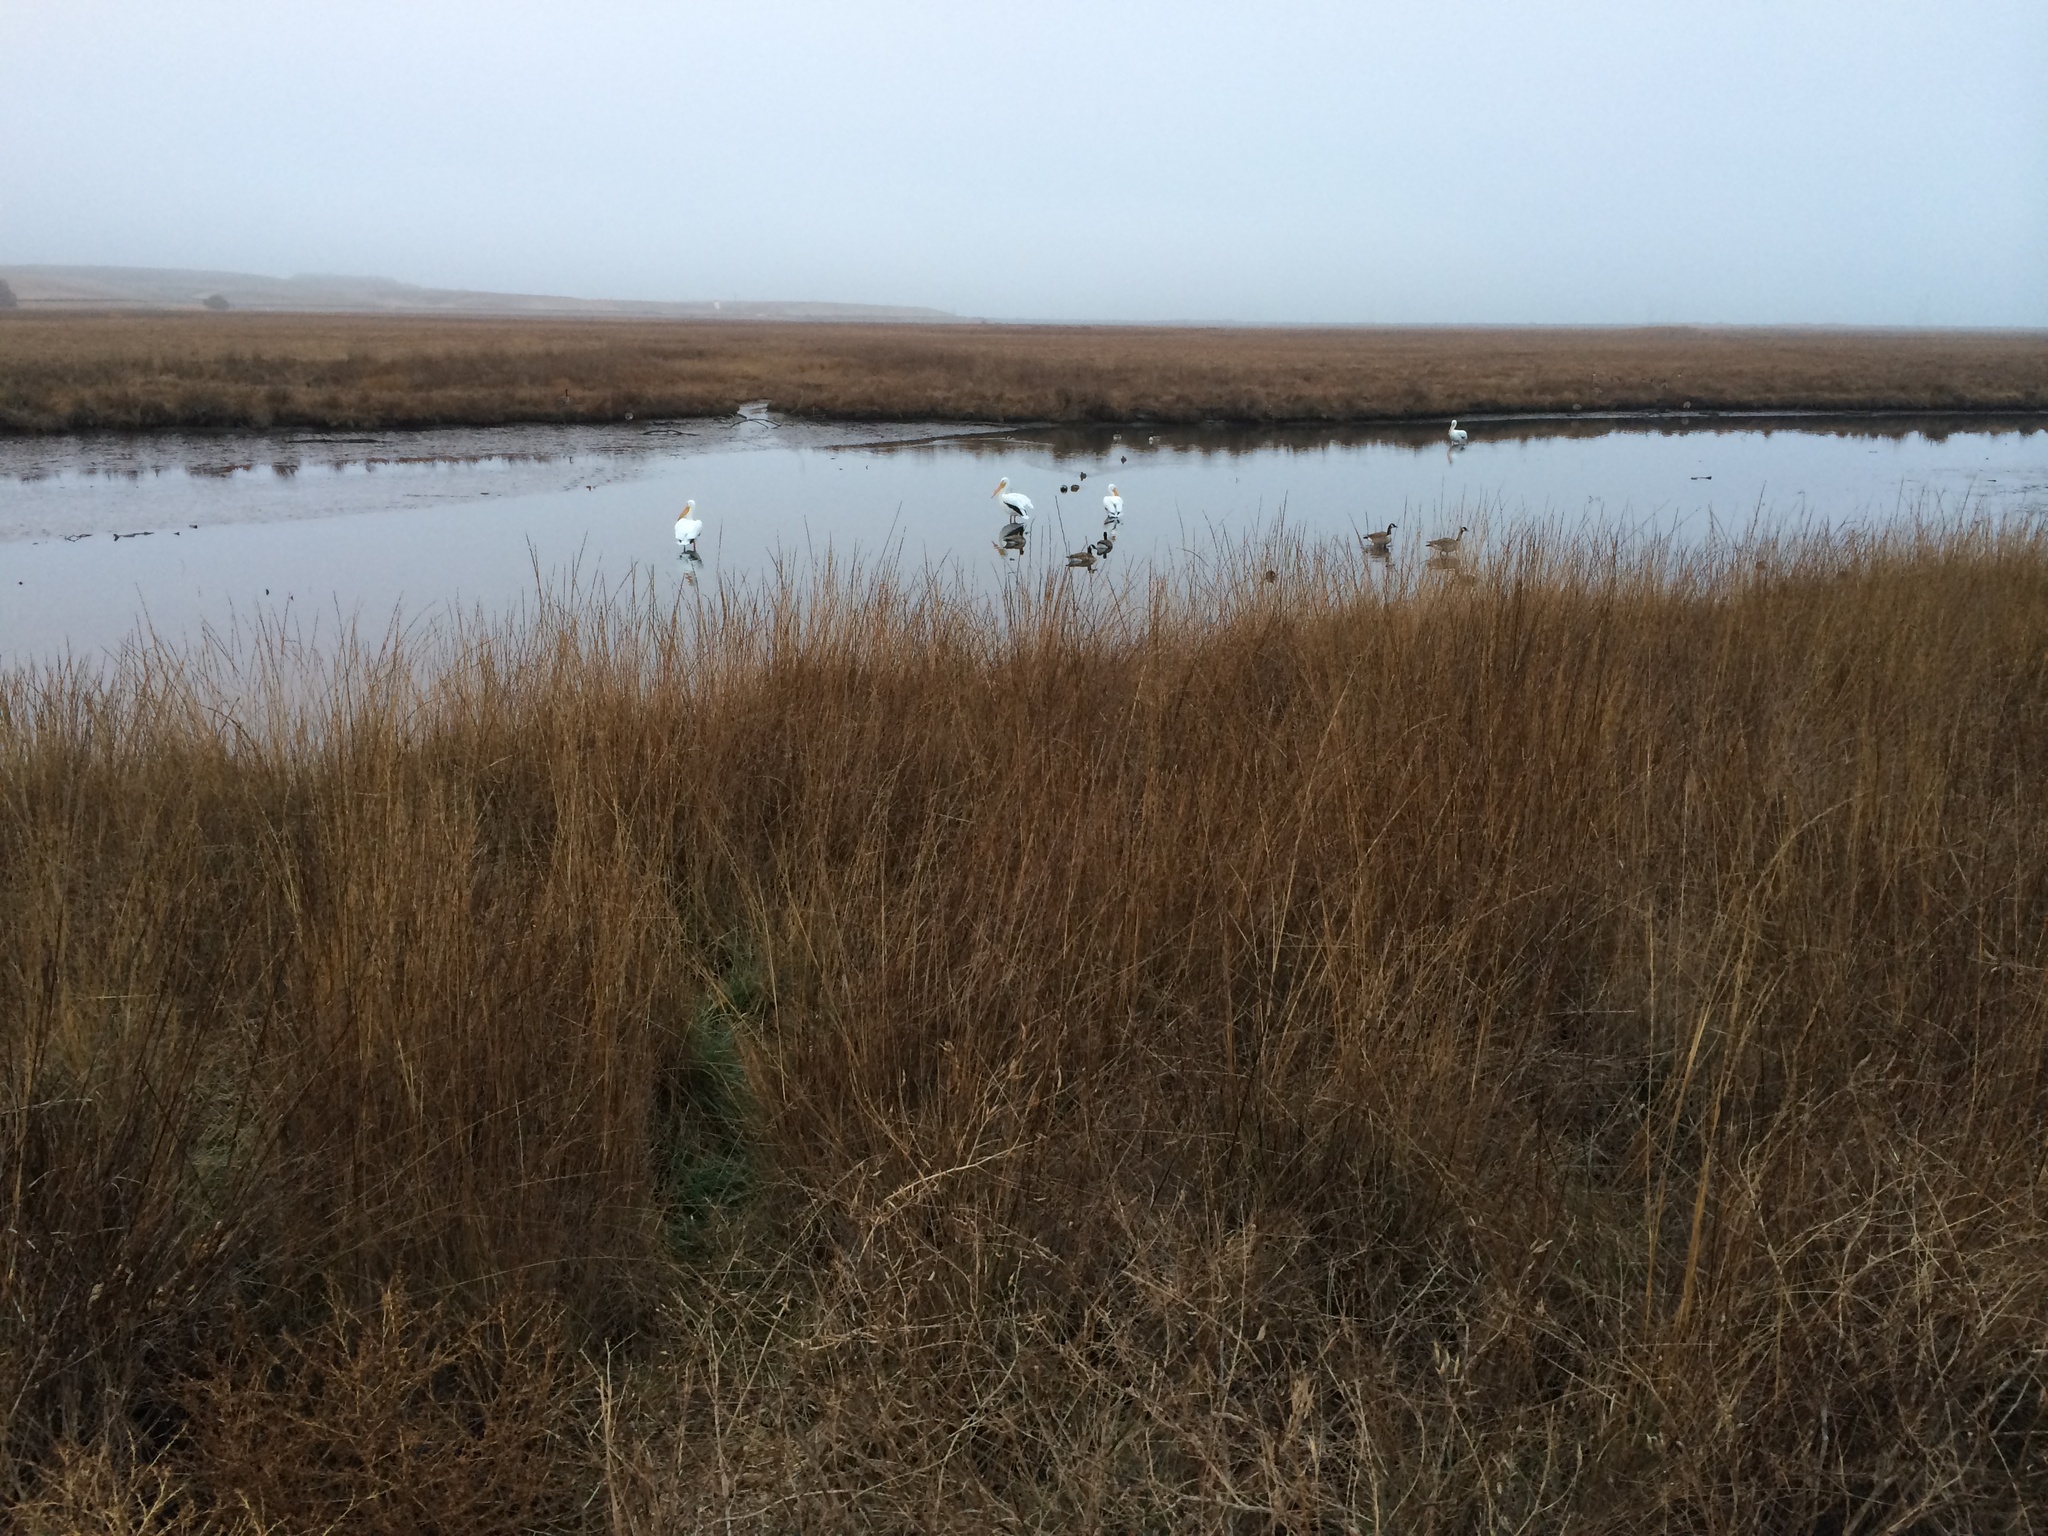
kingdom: Animalia
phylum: Chordata
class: Aves
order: Pelecaniformes
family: Pelecanidae
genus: Pelecanus
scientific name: Pelecanus erythrorhynchos
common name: American white pelican
